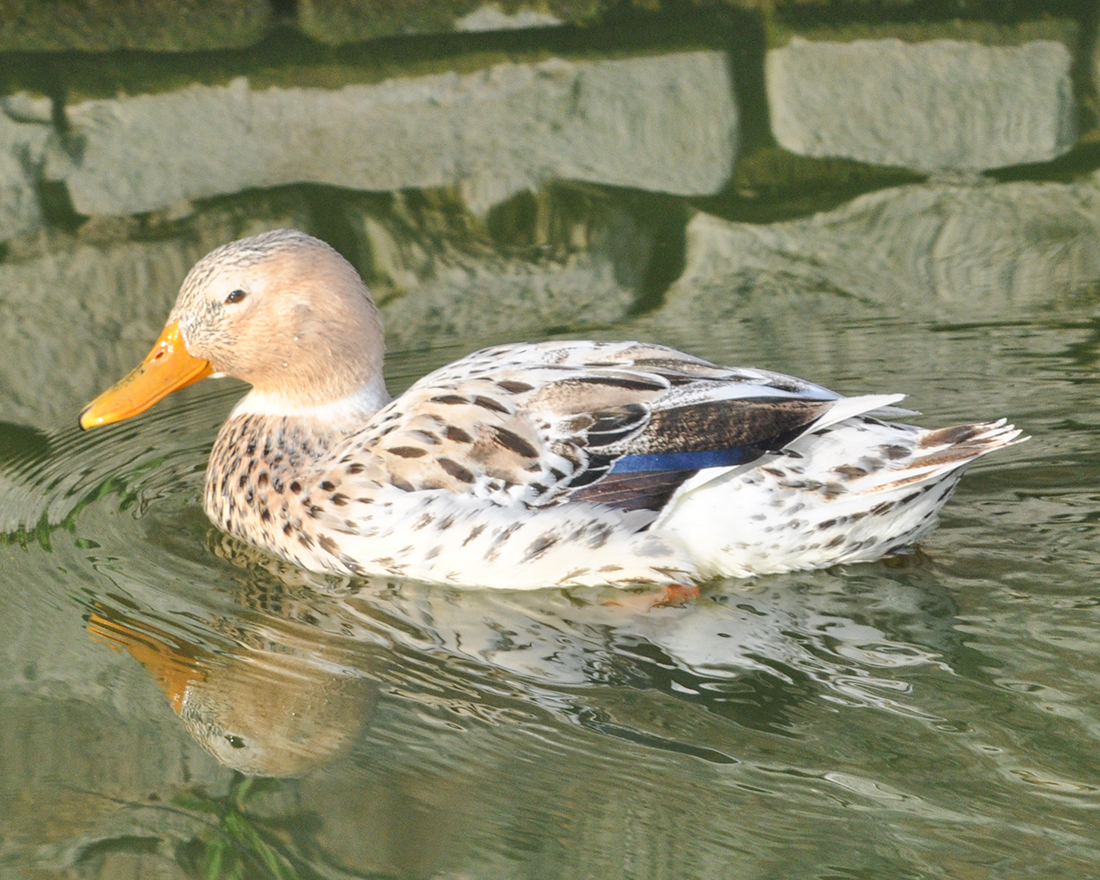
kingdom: Animalia
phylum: Chordata
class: Aves
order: Anseriformes
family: Anatidae
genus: Anas
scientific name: Anas platyrhynchos
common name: Mallard
